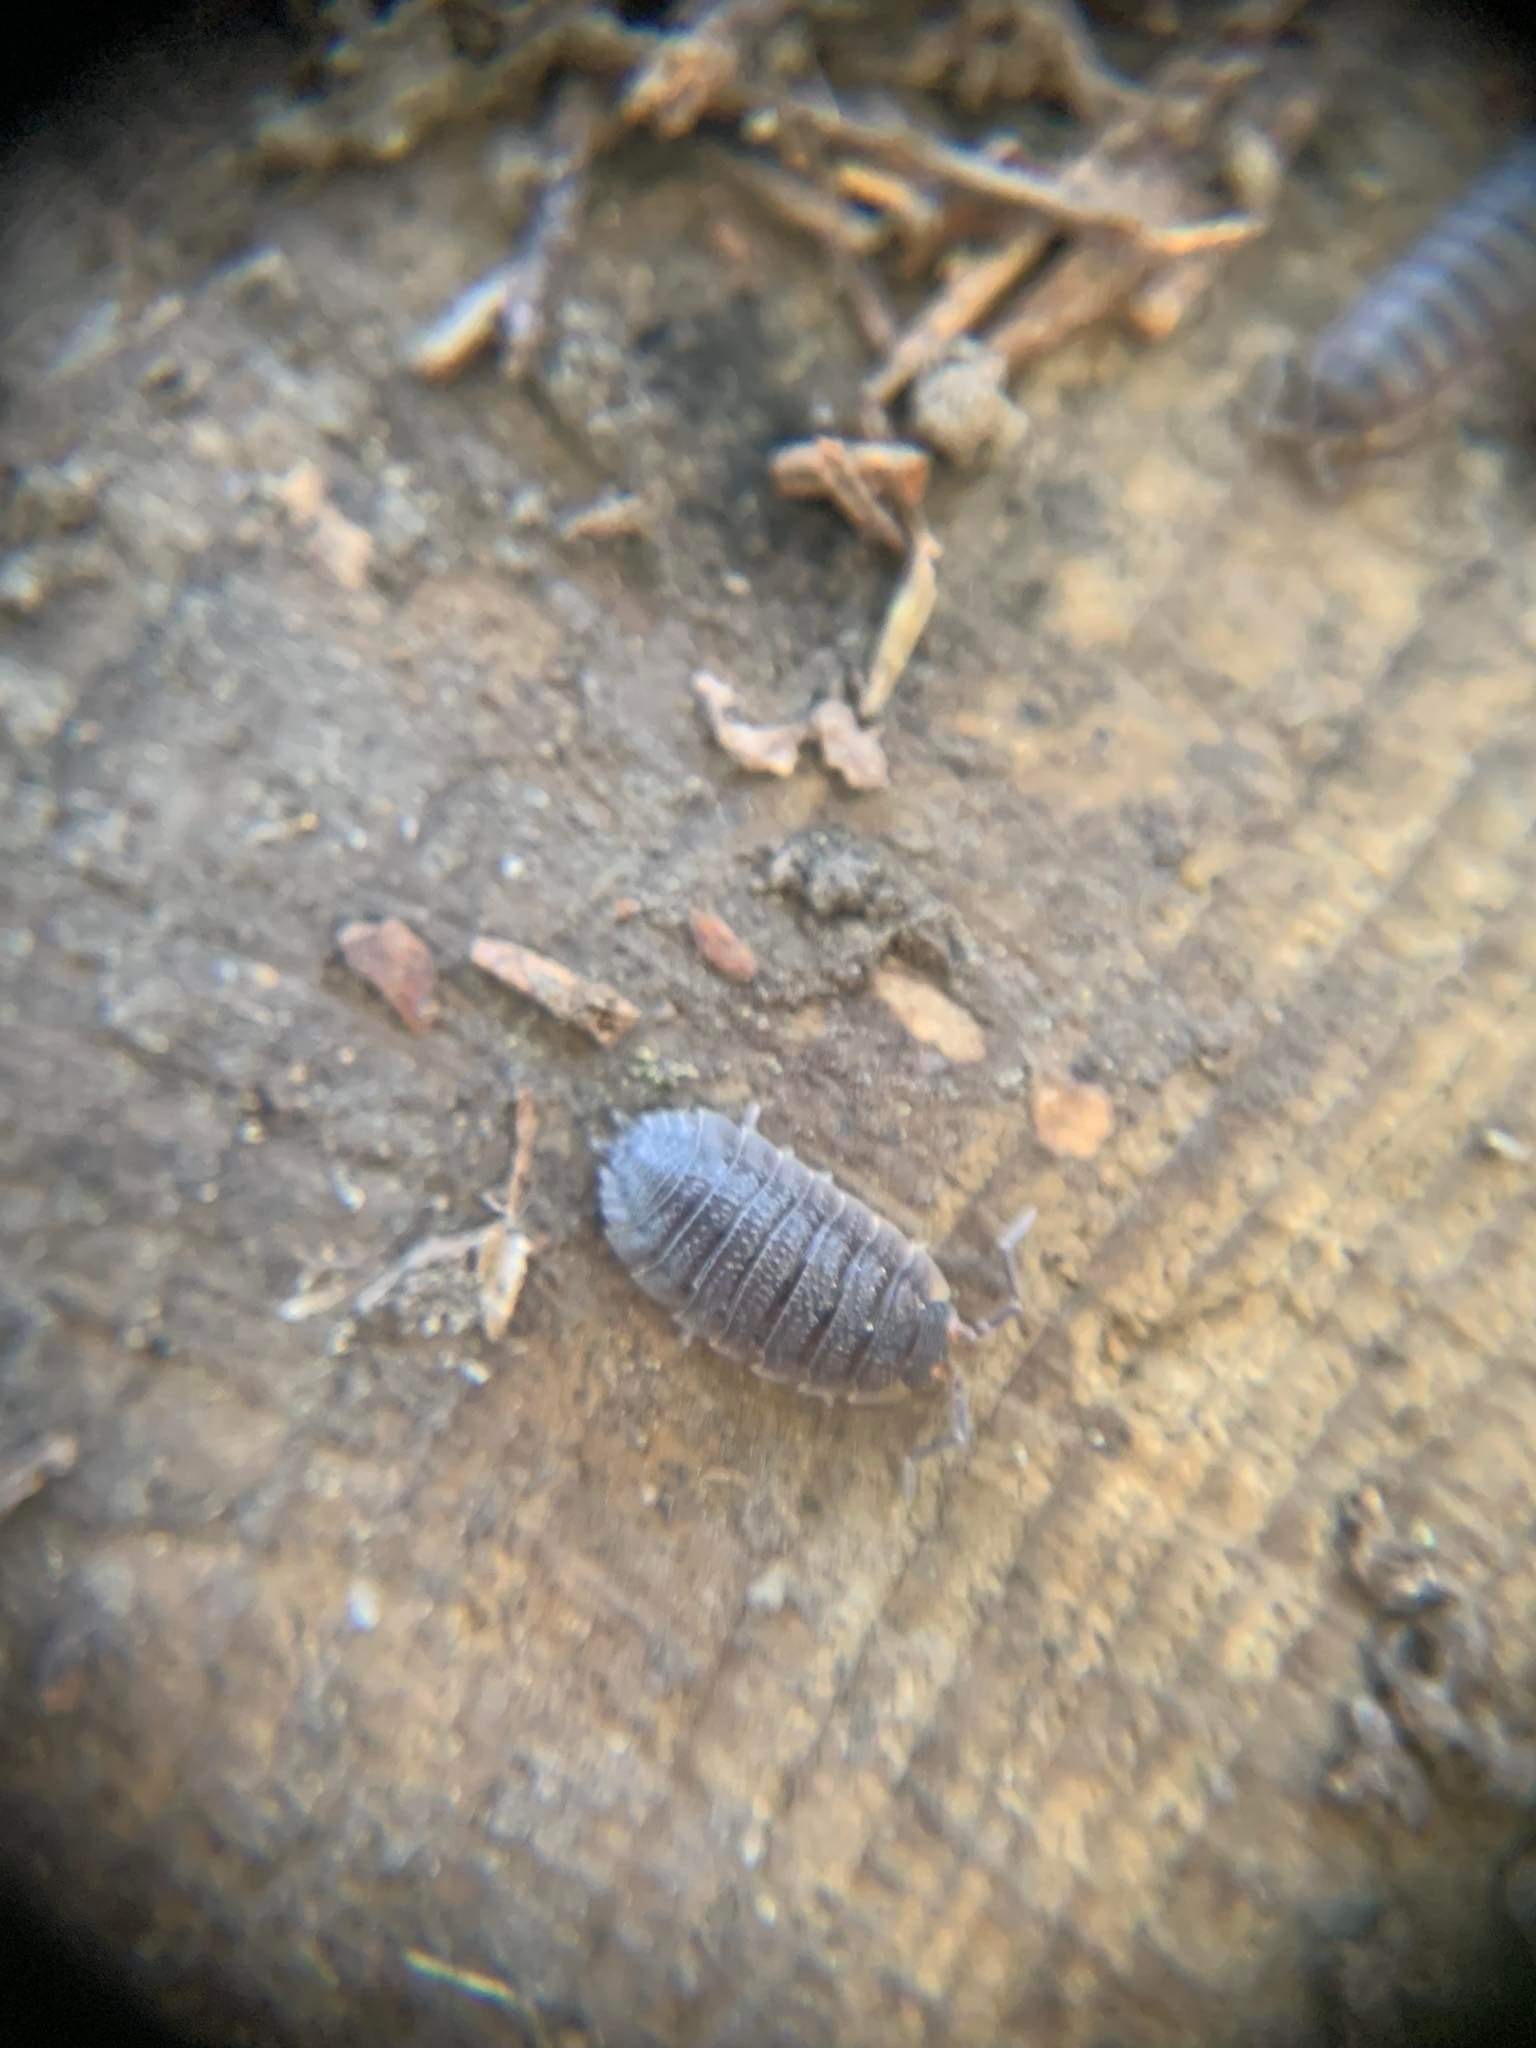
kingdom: Animalia
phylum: Arthropoda
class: Malacostraca
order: Isopoda
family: Porcellionidae
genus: Porcellio
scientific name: Porcellio scaber
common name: Common rough woodlouse
